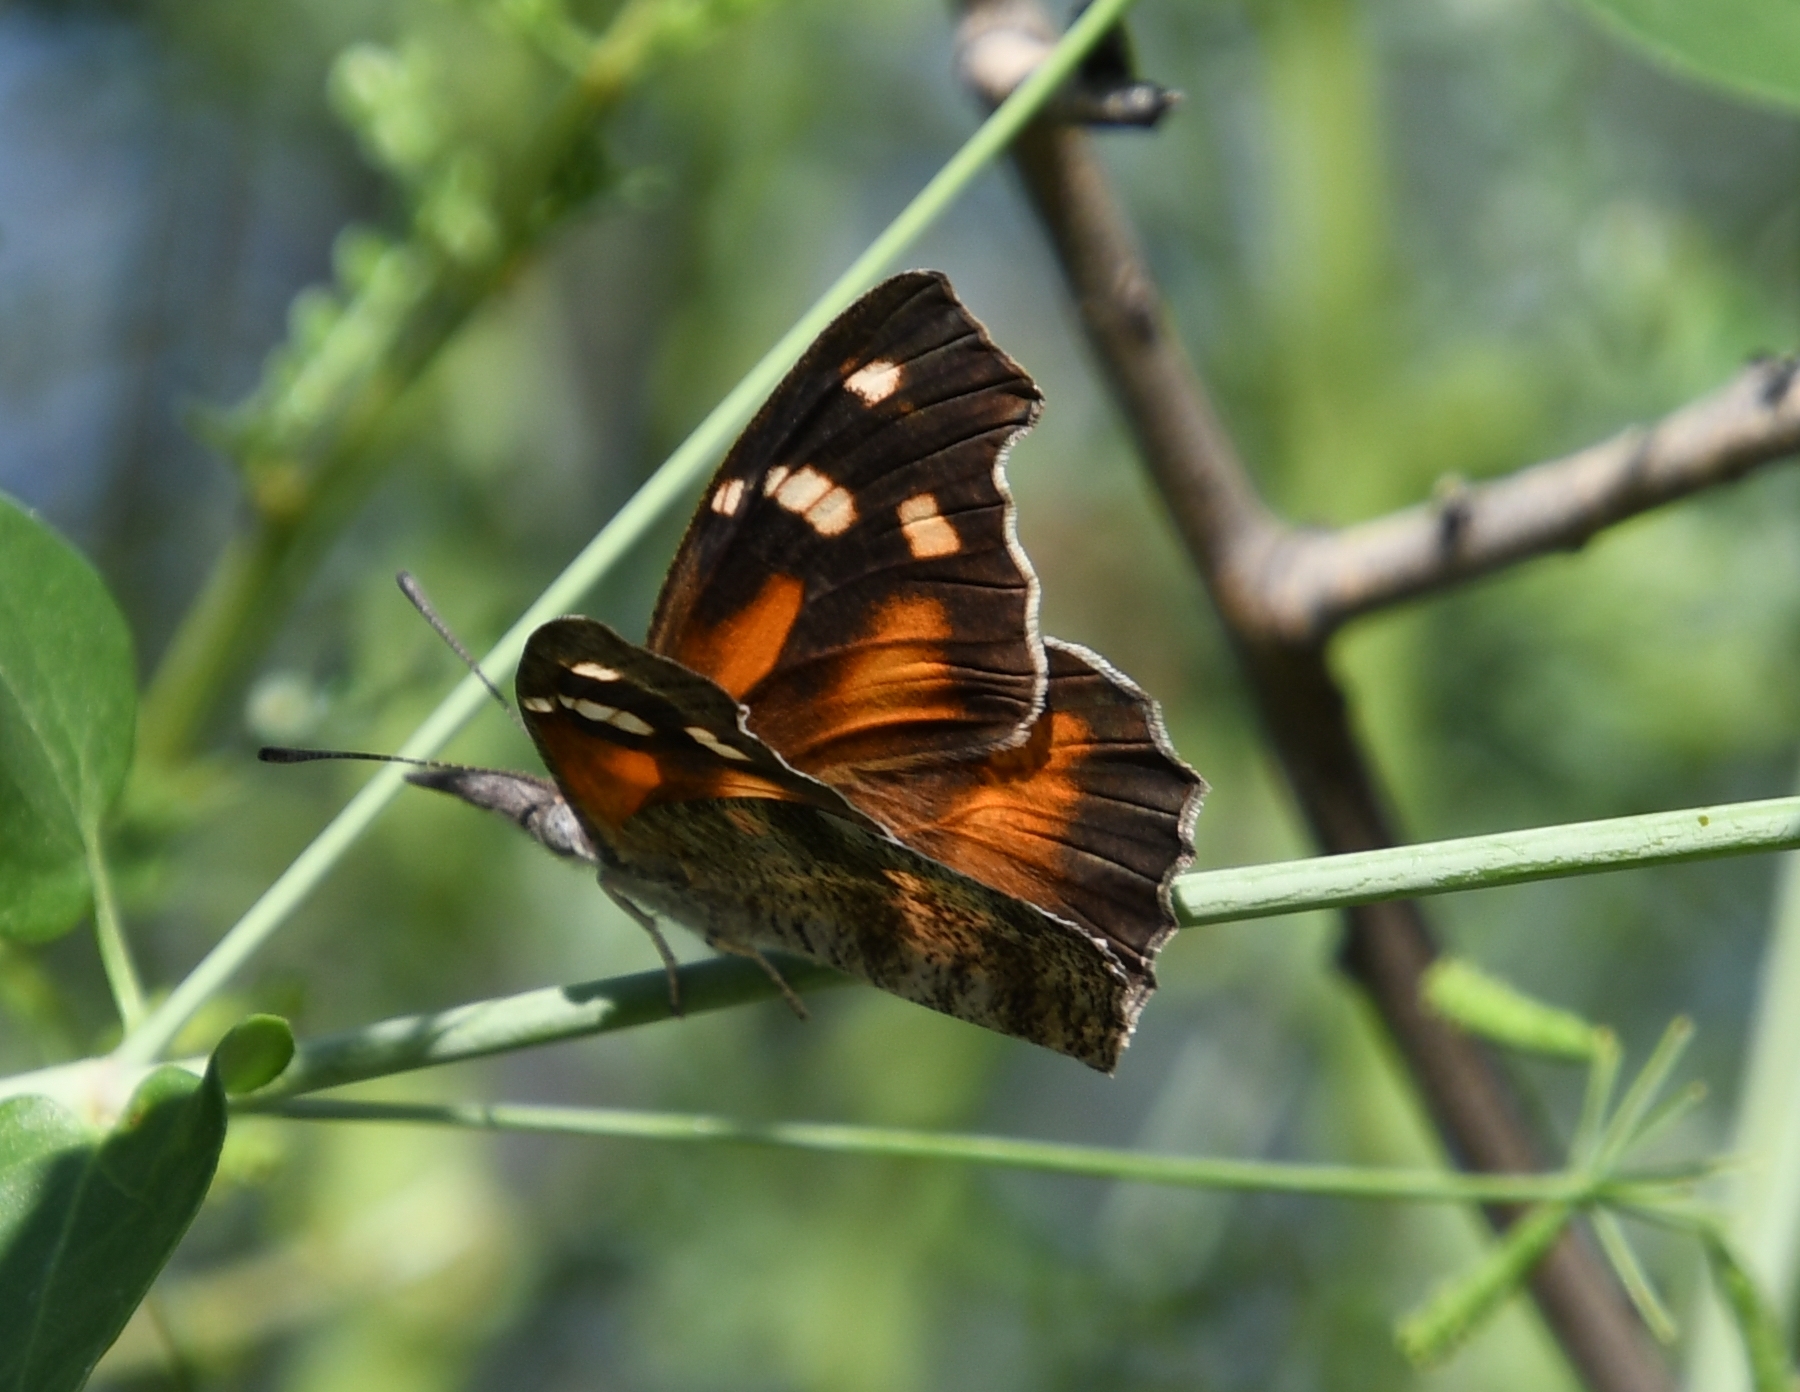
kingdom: Animalia
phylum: Arthropoda
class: Insecta
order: Lepidoptera
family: Nymphalidae
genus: Libytheana
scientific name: Libytheana carinenta
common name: American snout
